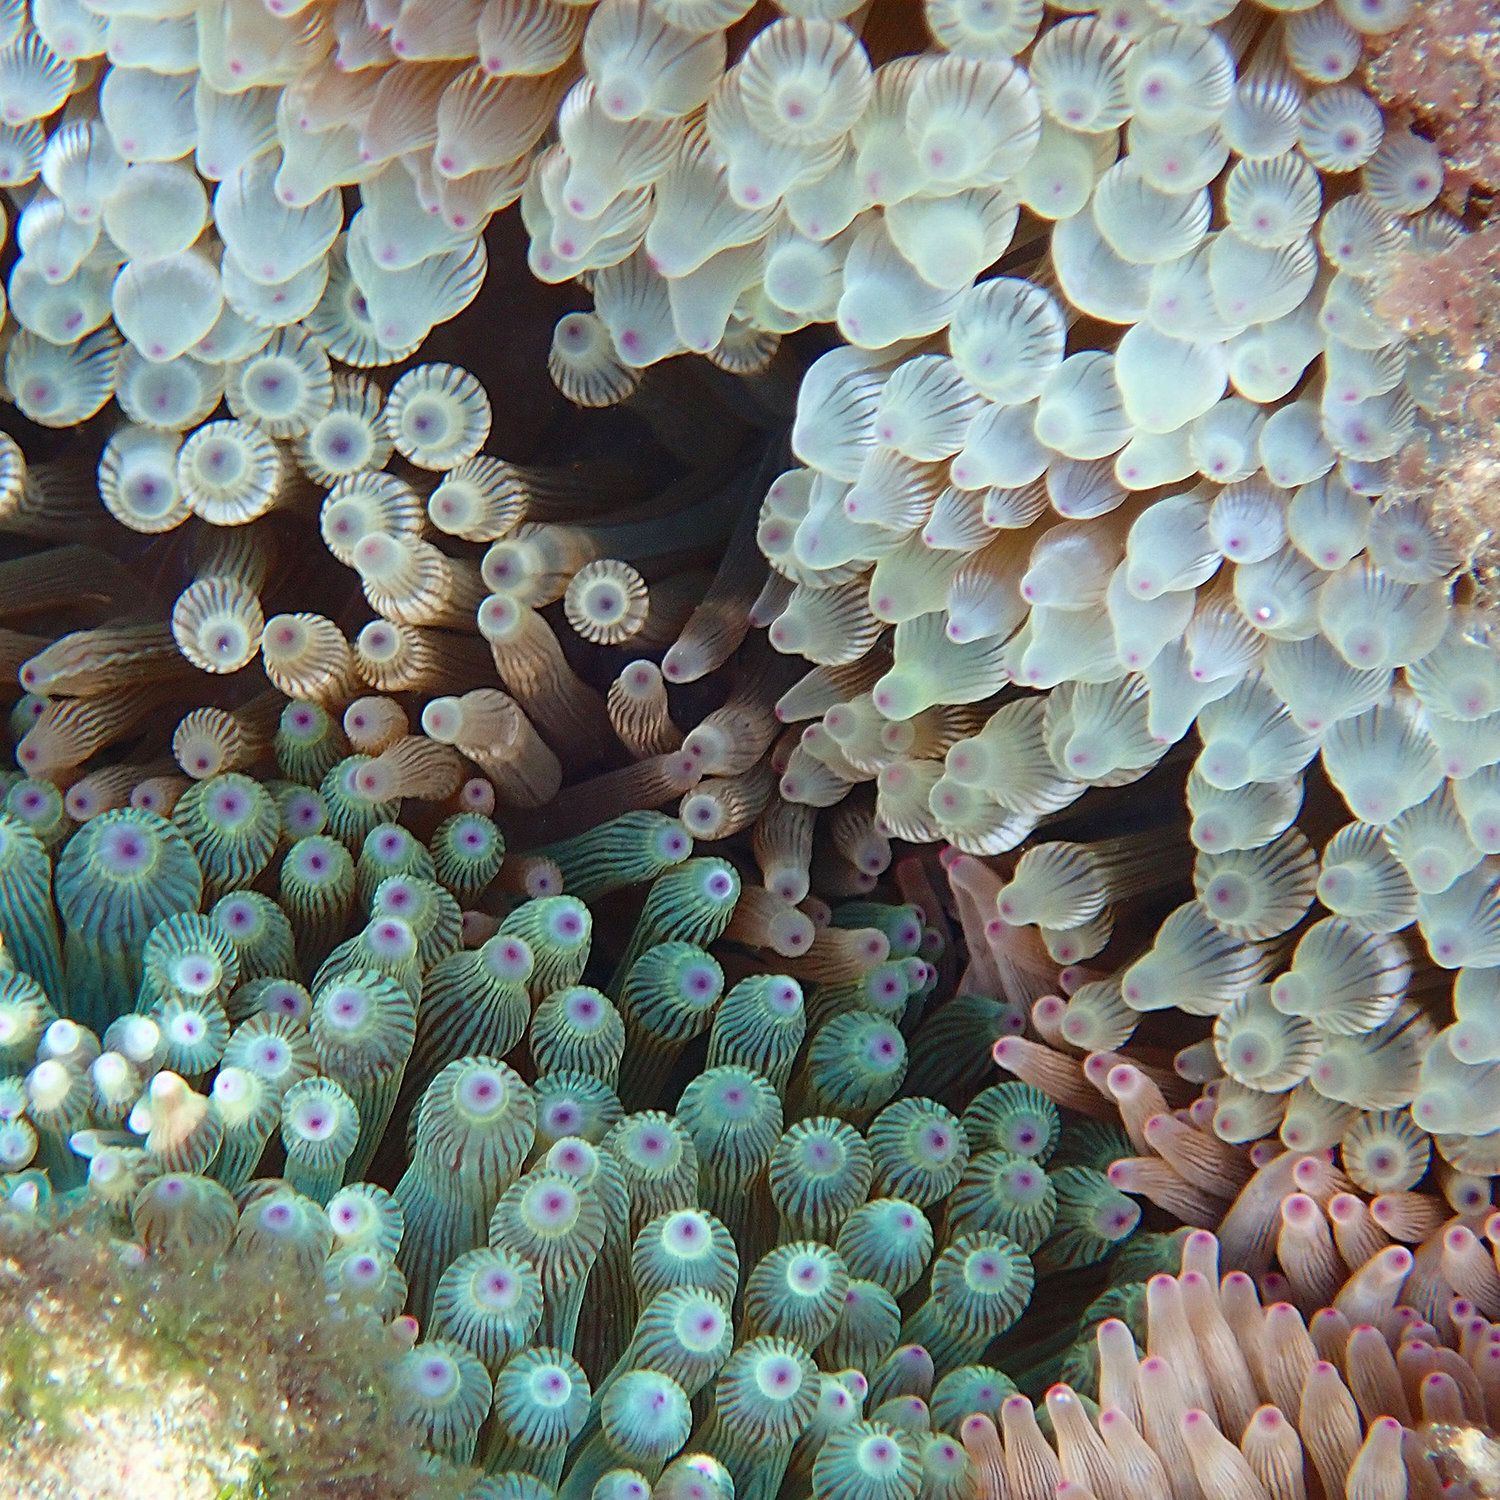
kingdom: Animalia
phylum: Cnidaria
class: Anthozoa
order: Actiniaria
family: Actiniidae
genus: Entacmaea
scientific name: Entacmaea quadricolor
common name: Bulb tentacle sea anemone
